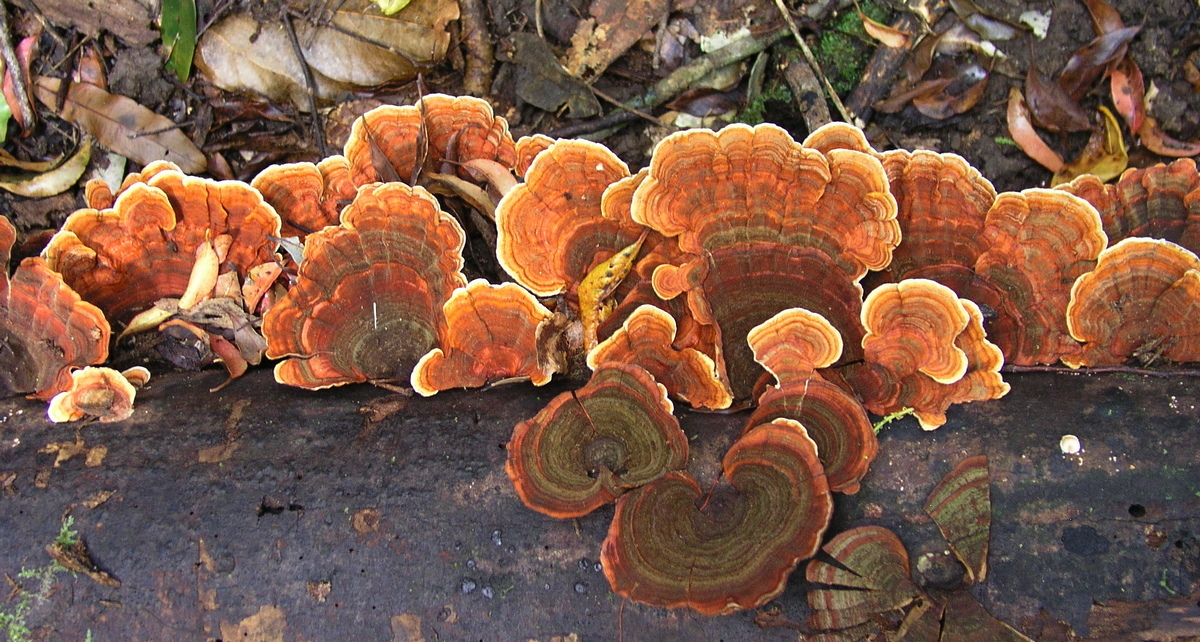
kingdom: Fungi
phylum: Basidiomycota
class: Agaricomycetes
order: Russulales
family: Stereaceae
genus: Stereum
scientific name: Stereum versicolor
